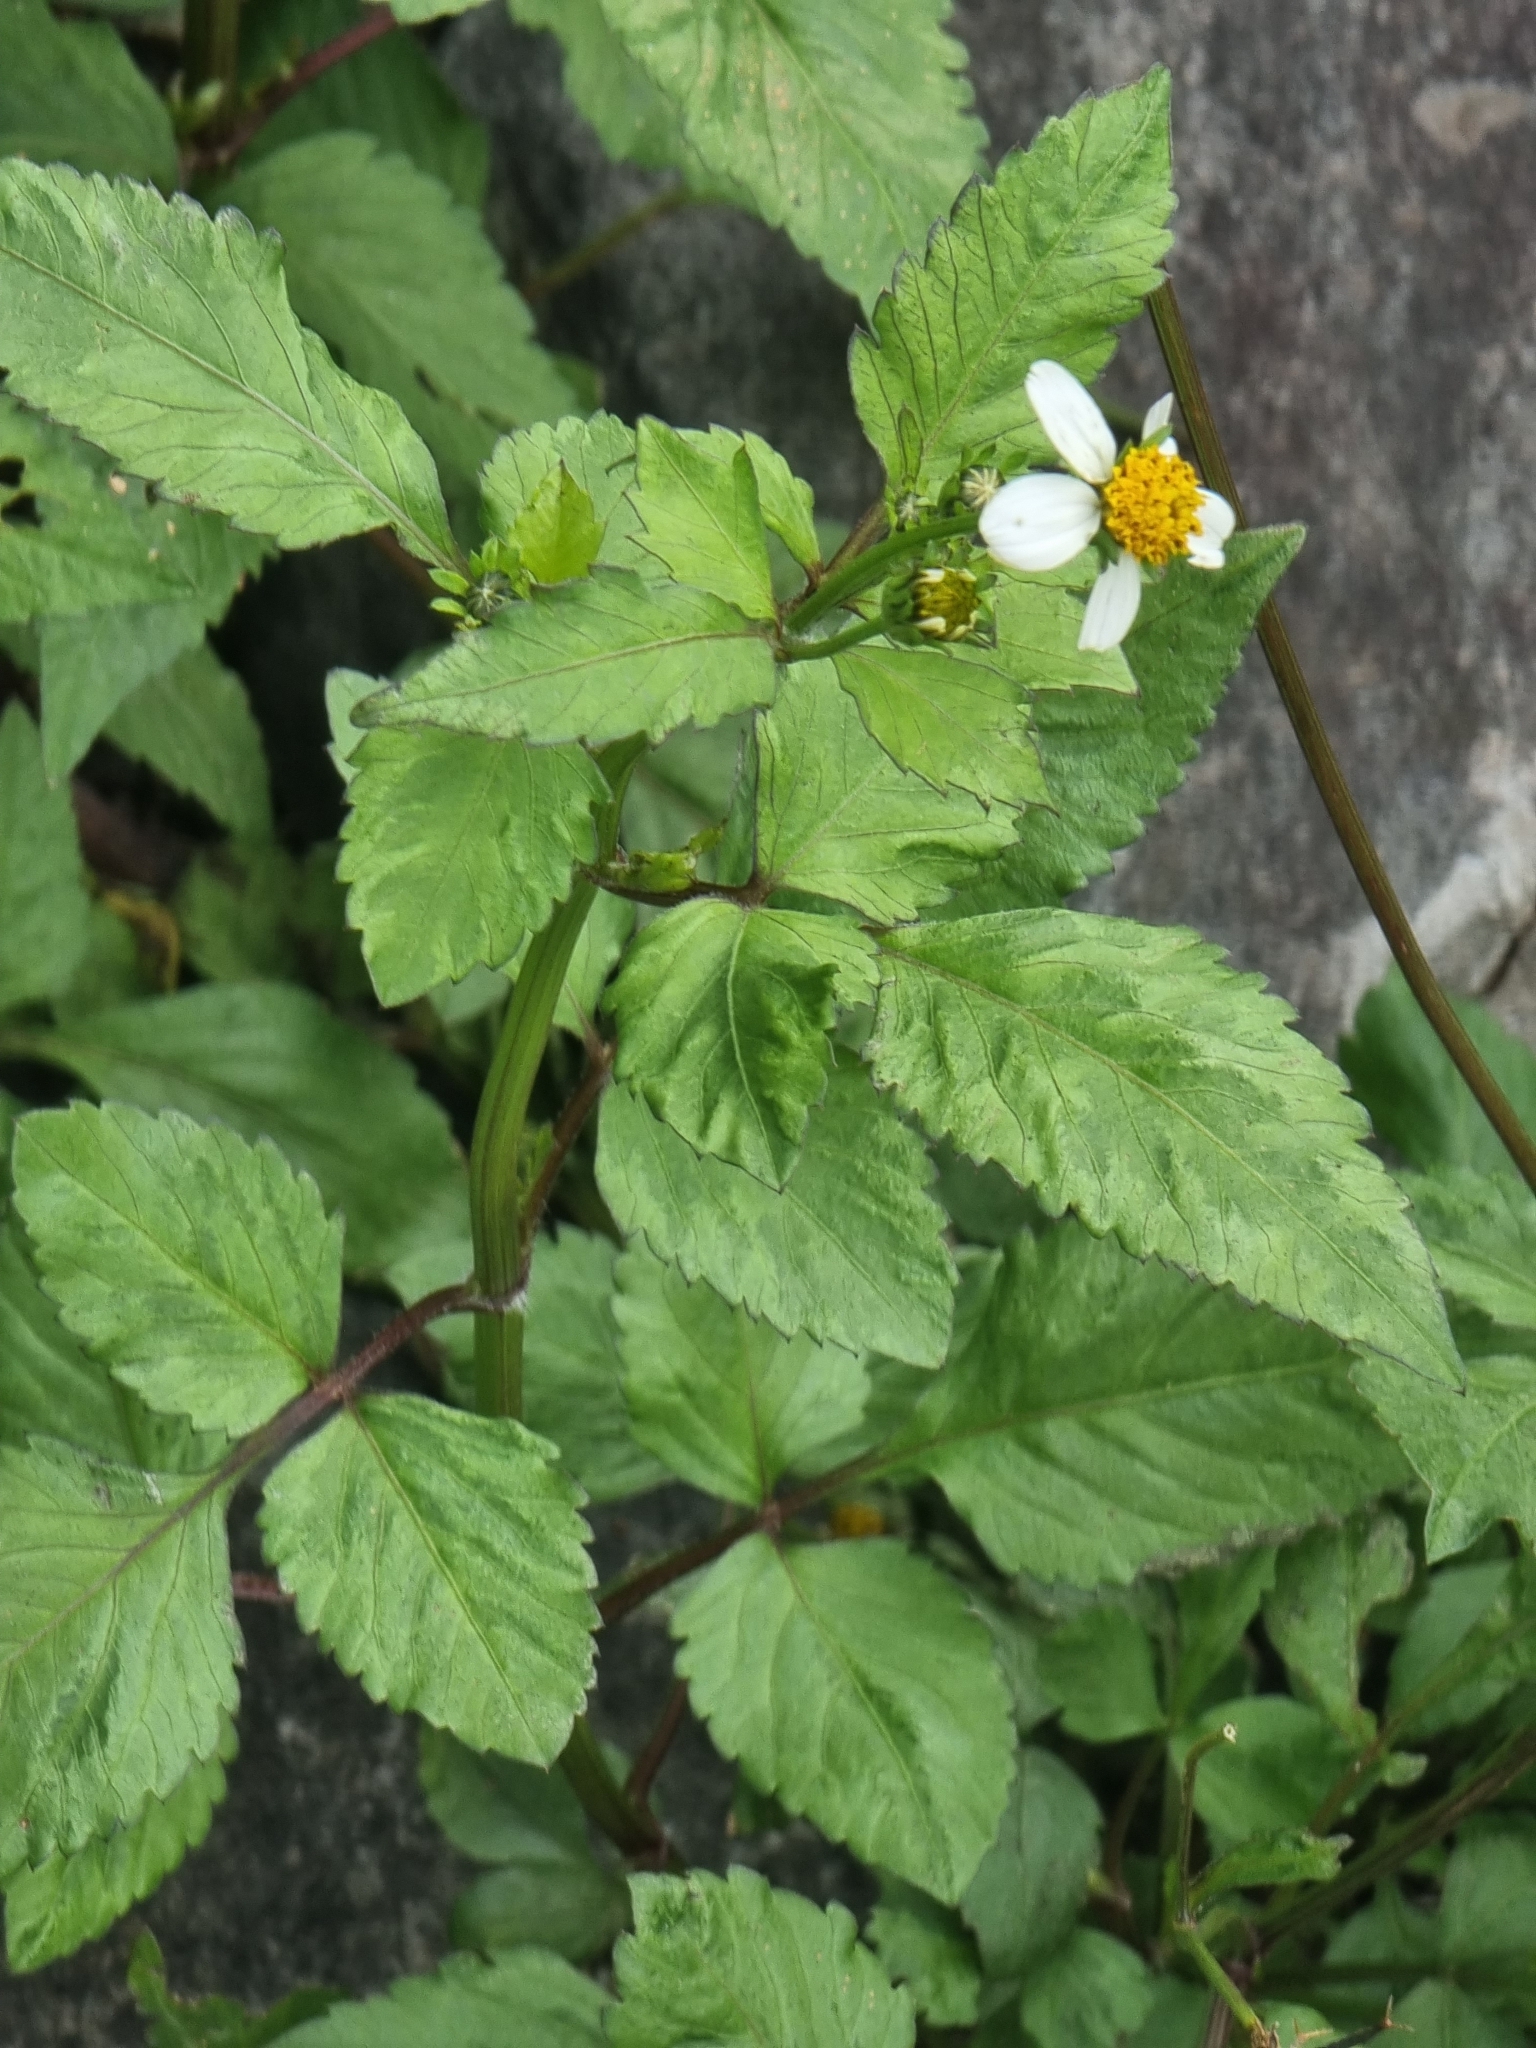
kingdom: Plantae
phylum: Tracheophyta
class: Magnoliopsida
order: Asterales
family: Asteraceae
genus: Bidens
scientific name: Bidens pilosa
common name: Black-jack
